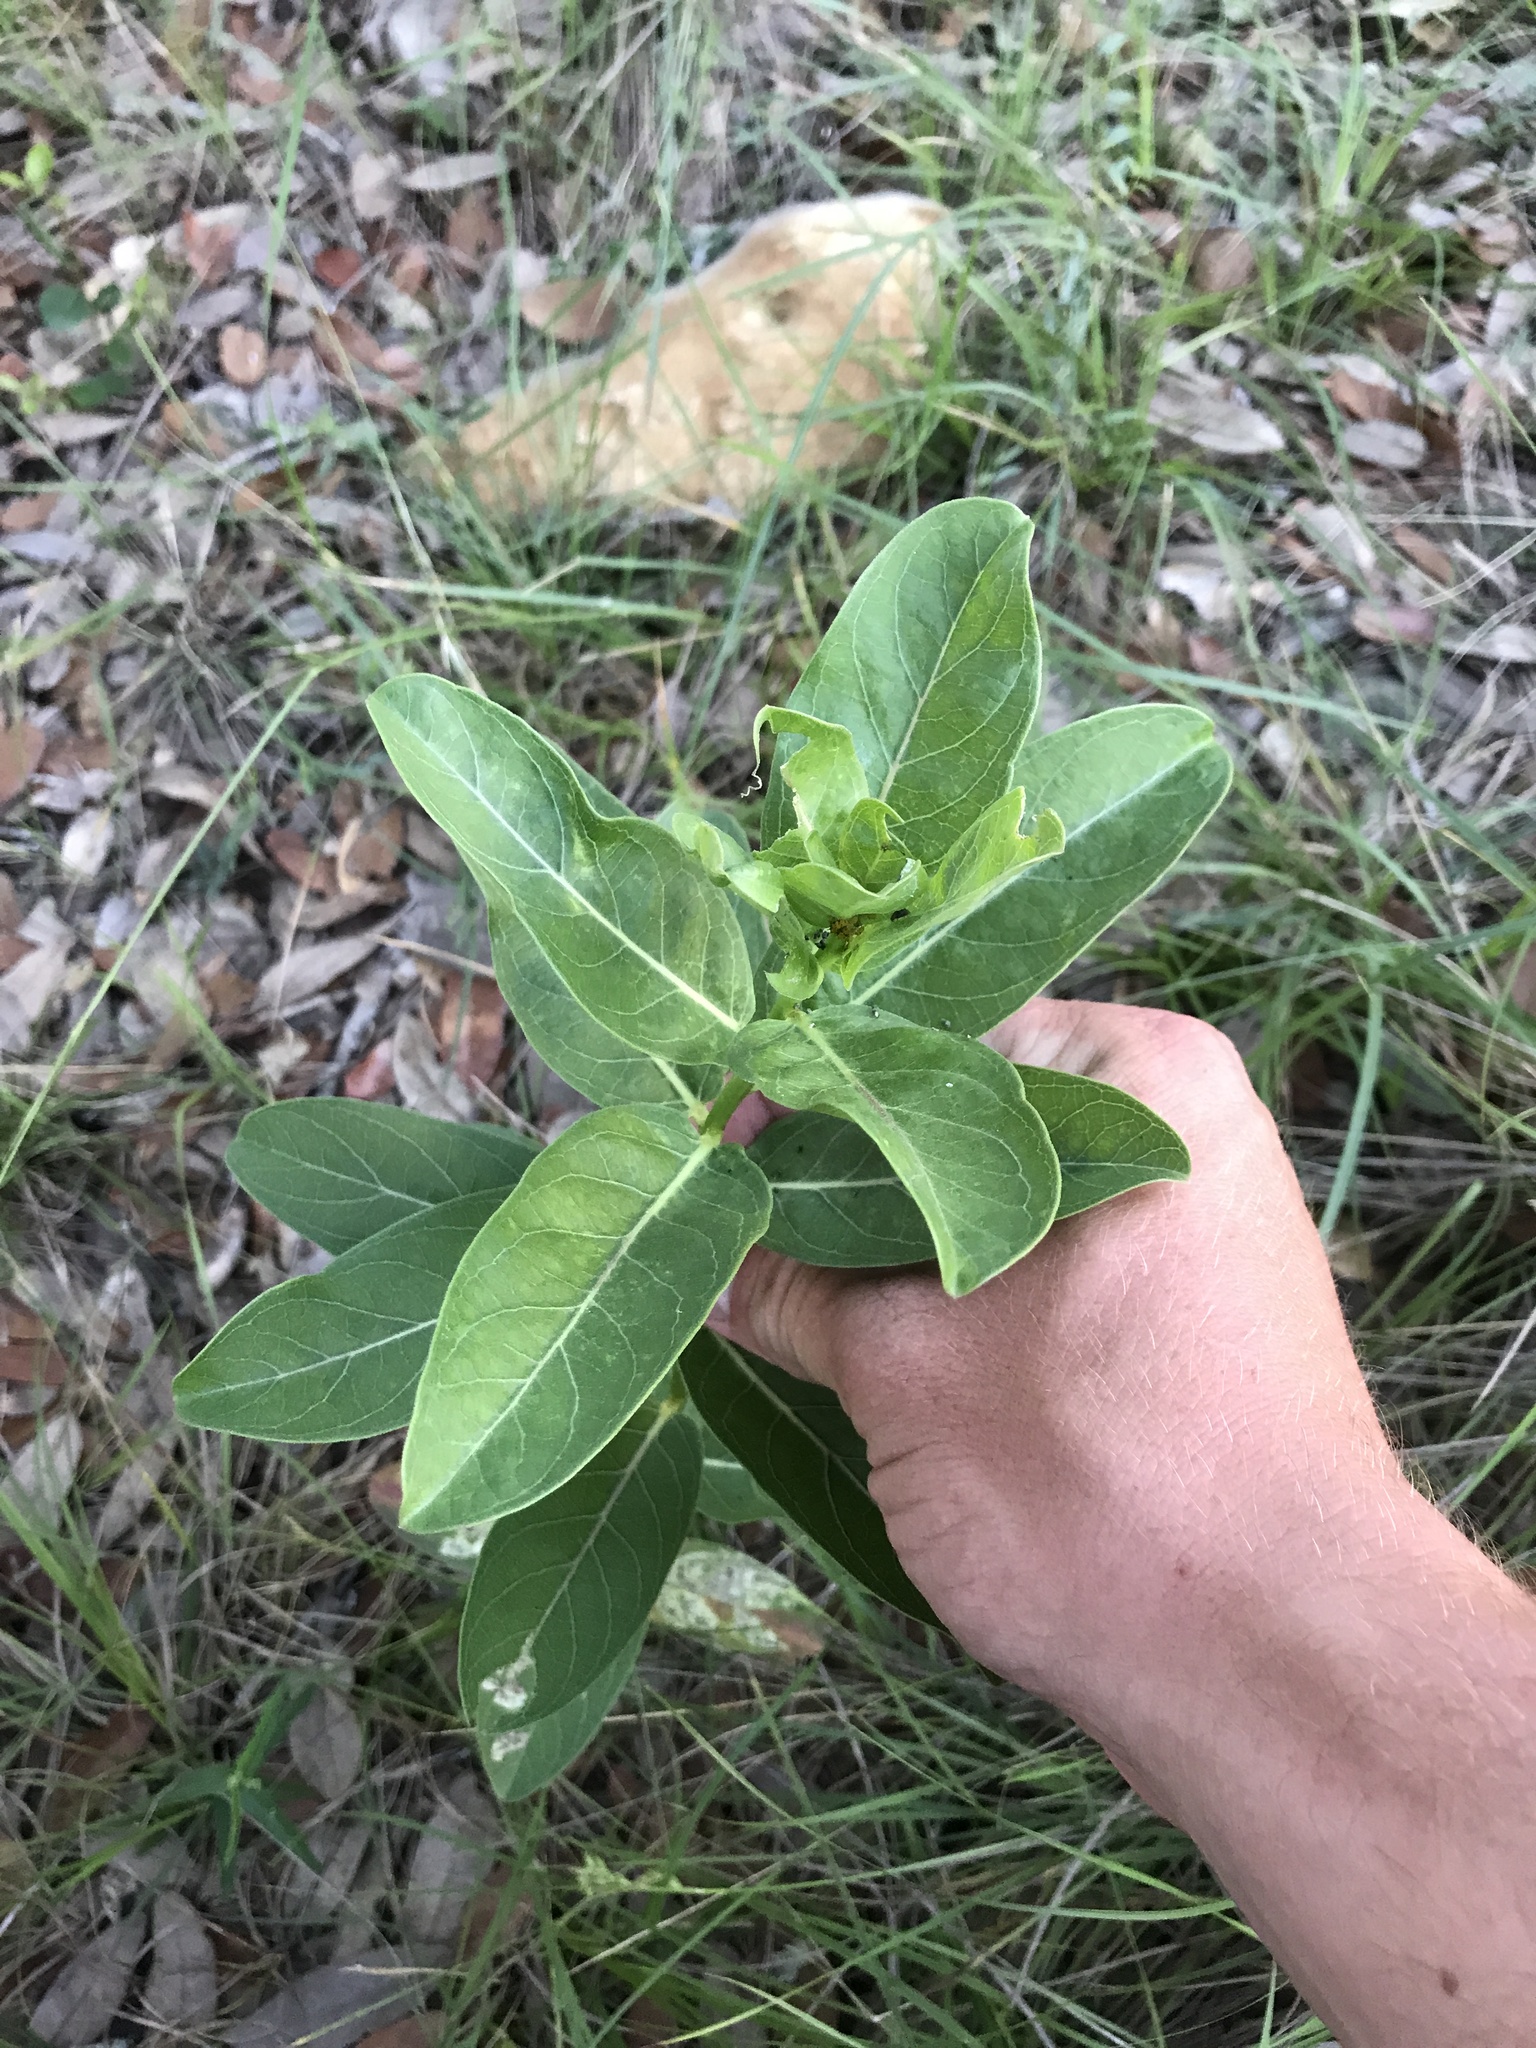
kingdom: Plantae
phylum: Tracheophyta
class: Magnoliopsida
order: Gentianales
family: Apocynaceae
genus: Asclepias
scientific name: Asclepias viridis
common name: Antelope-horns
